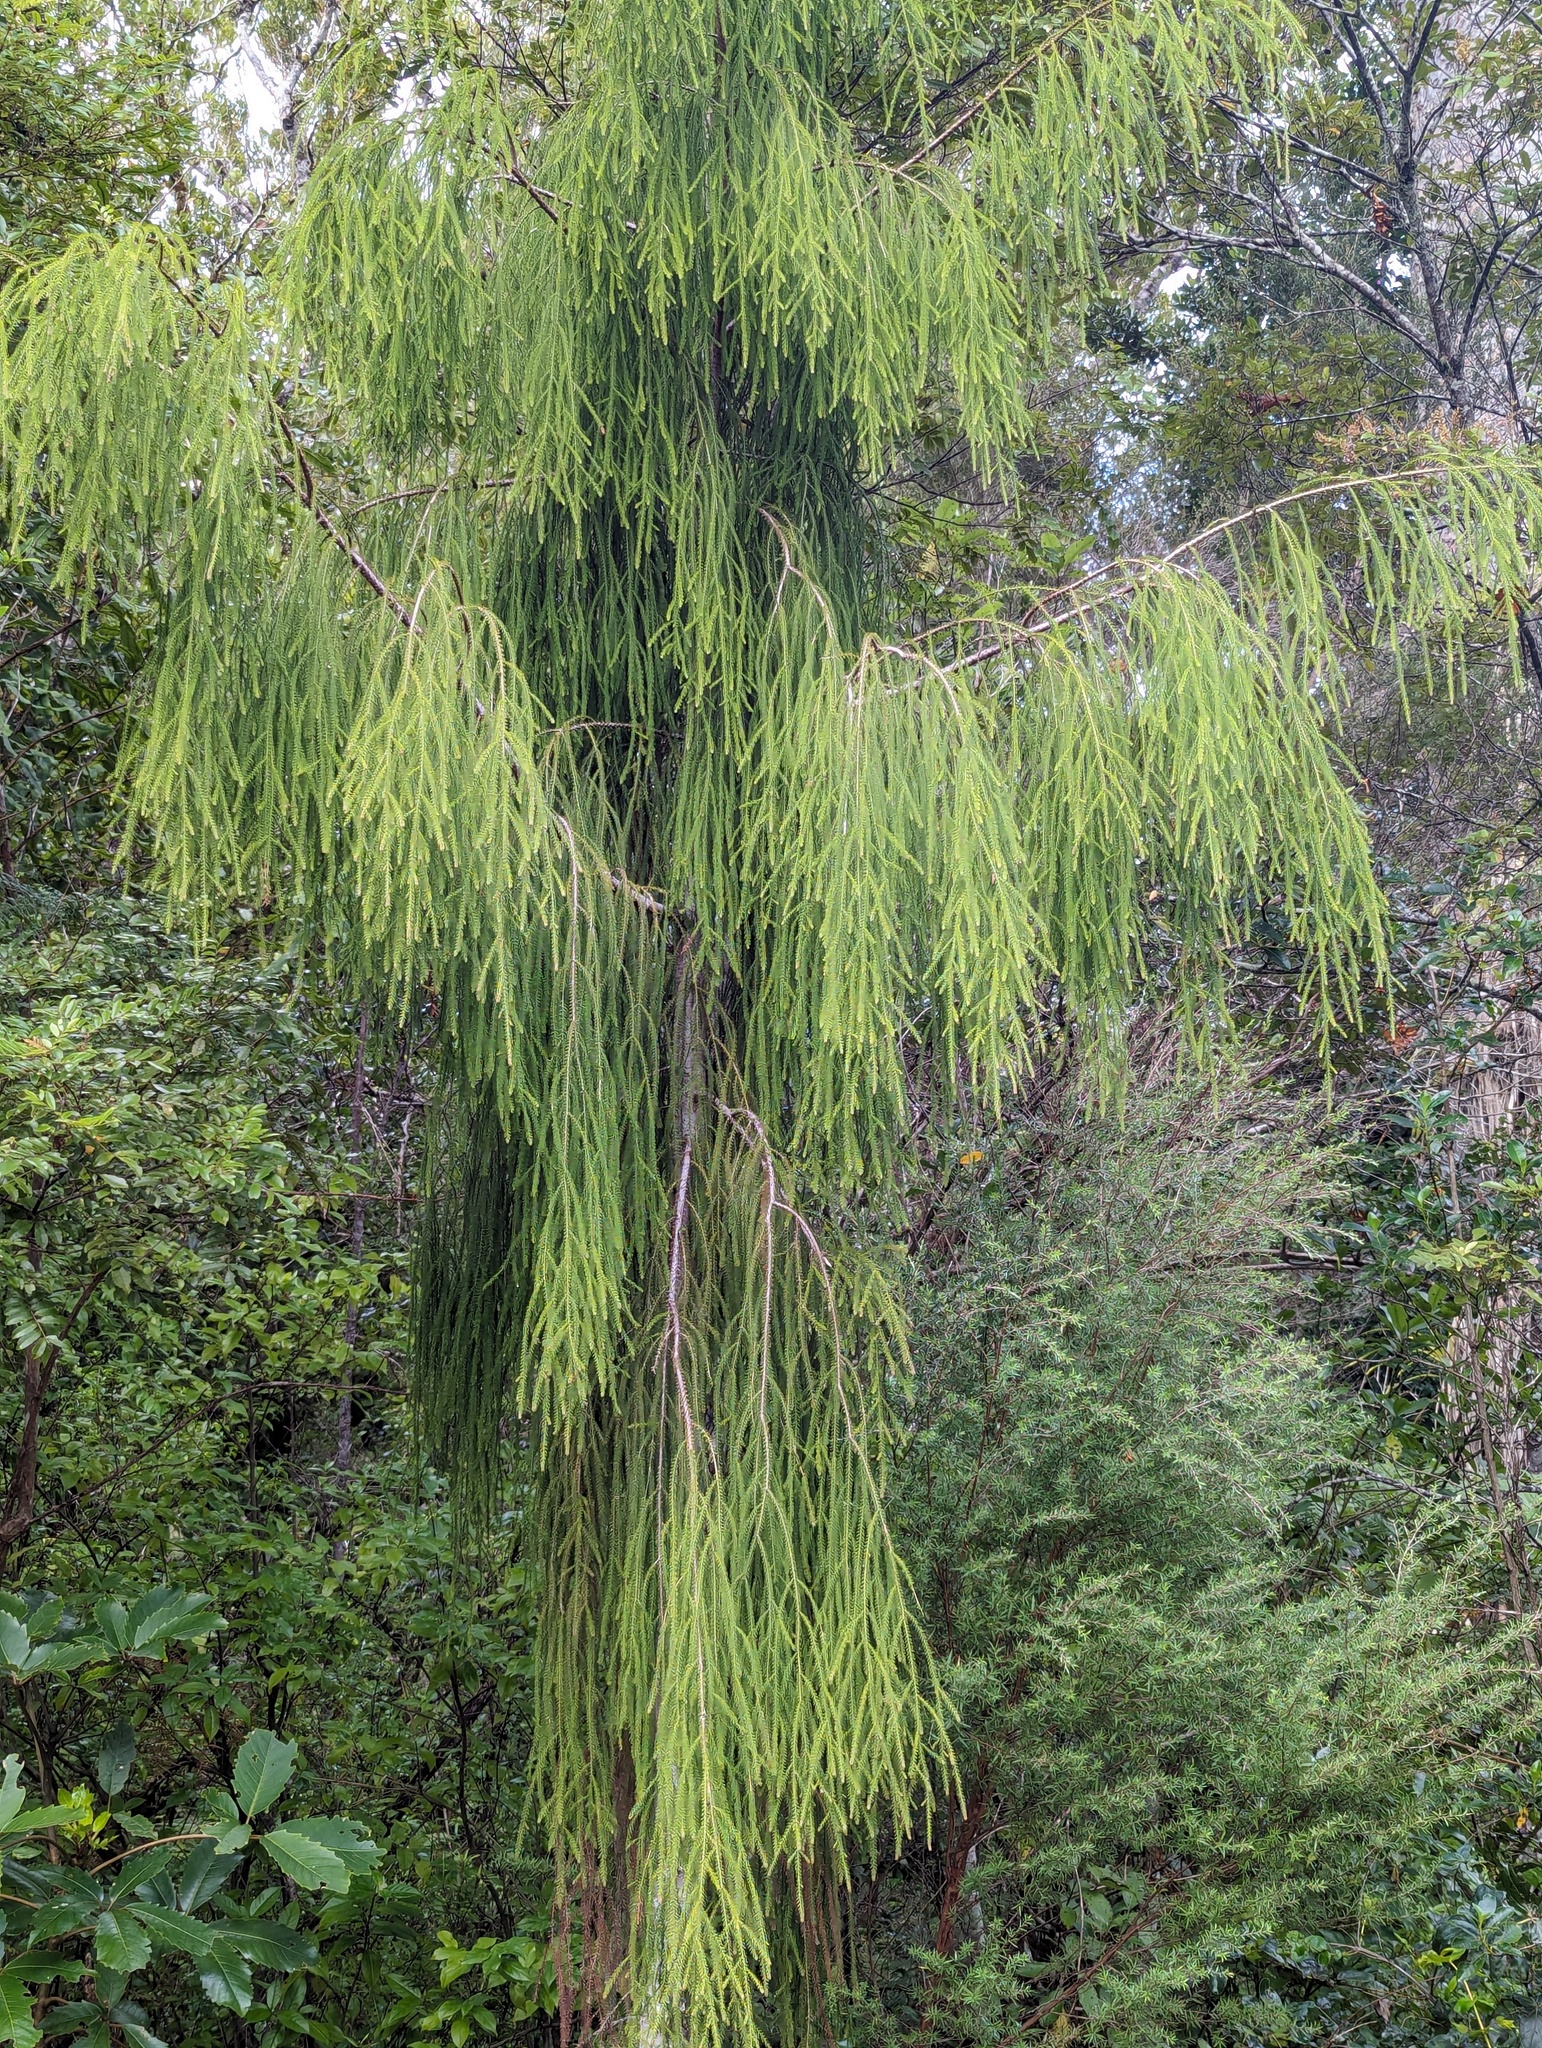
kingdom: Plantae
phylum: Tracheophyta
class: Pinopsida
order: Pinales
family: Podocarpaceae
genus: Dacrydium
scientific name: Dacrydium cupressinum
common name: Red pine
